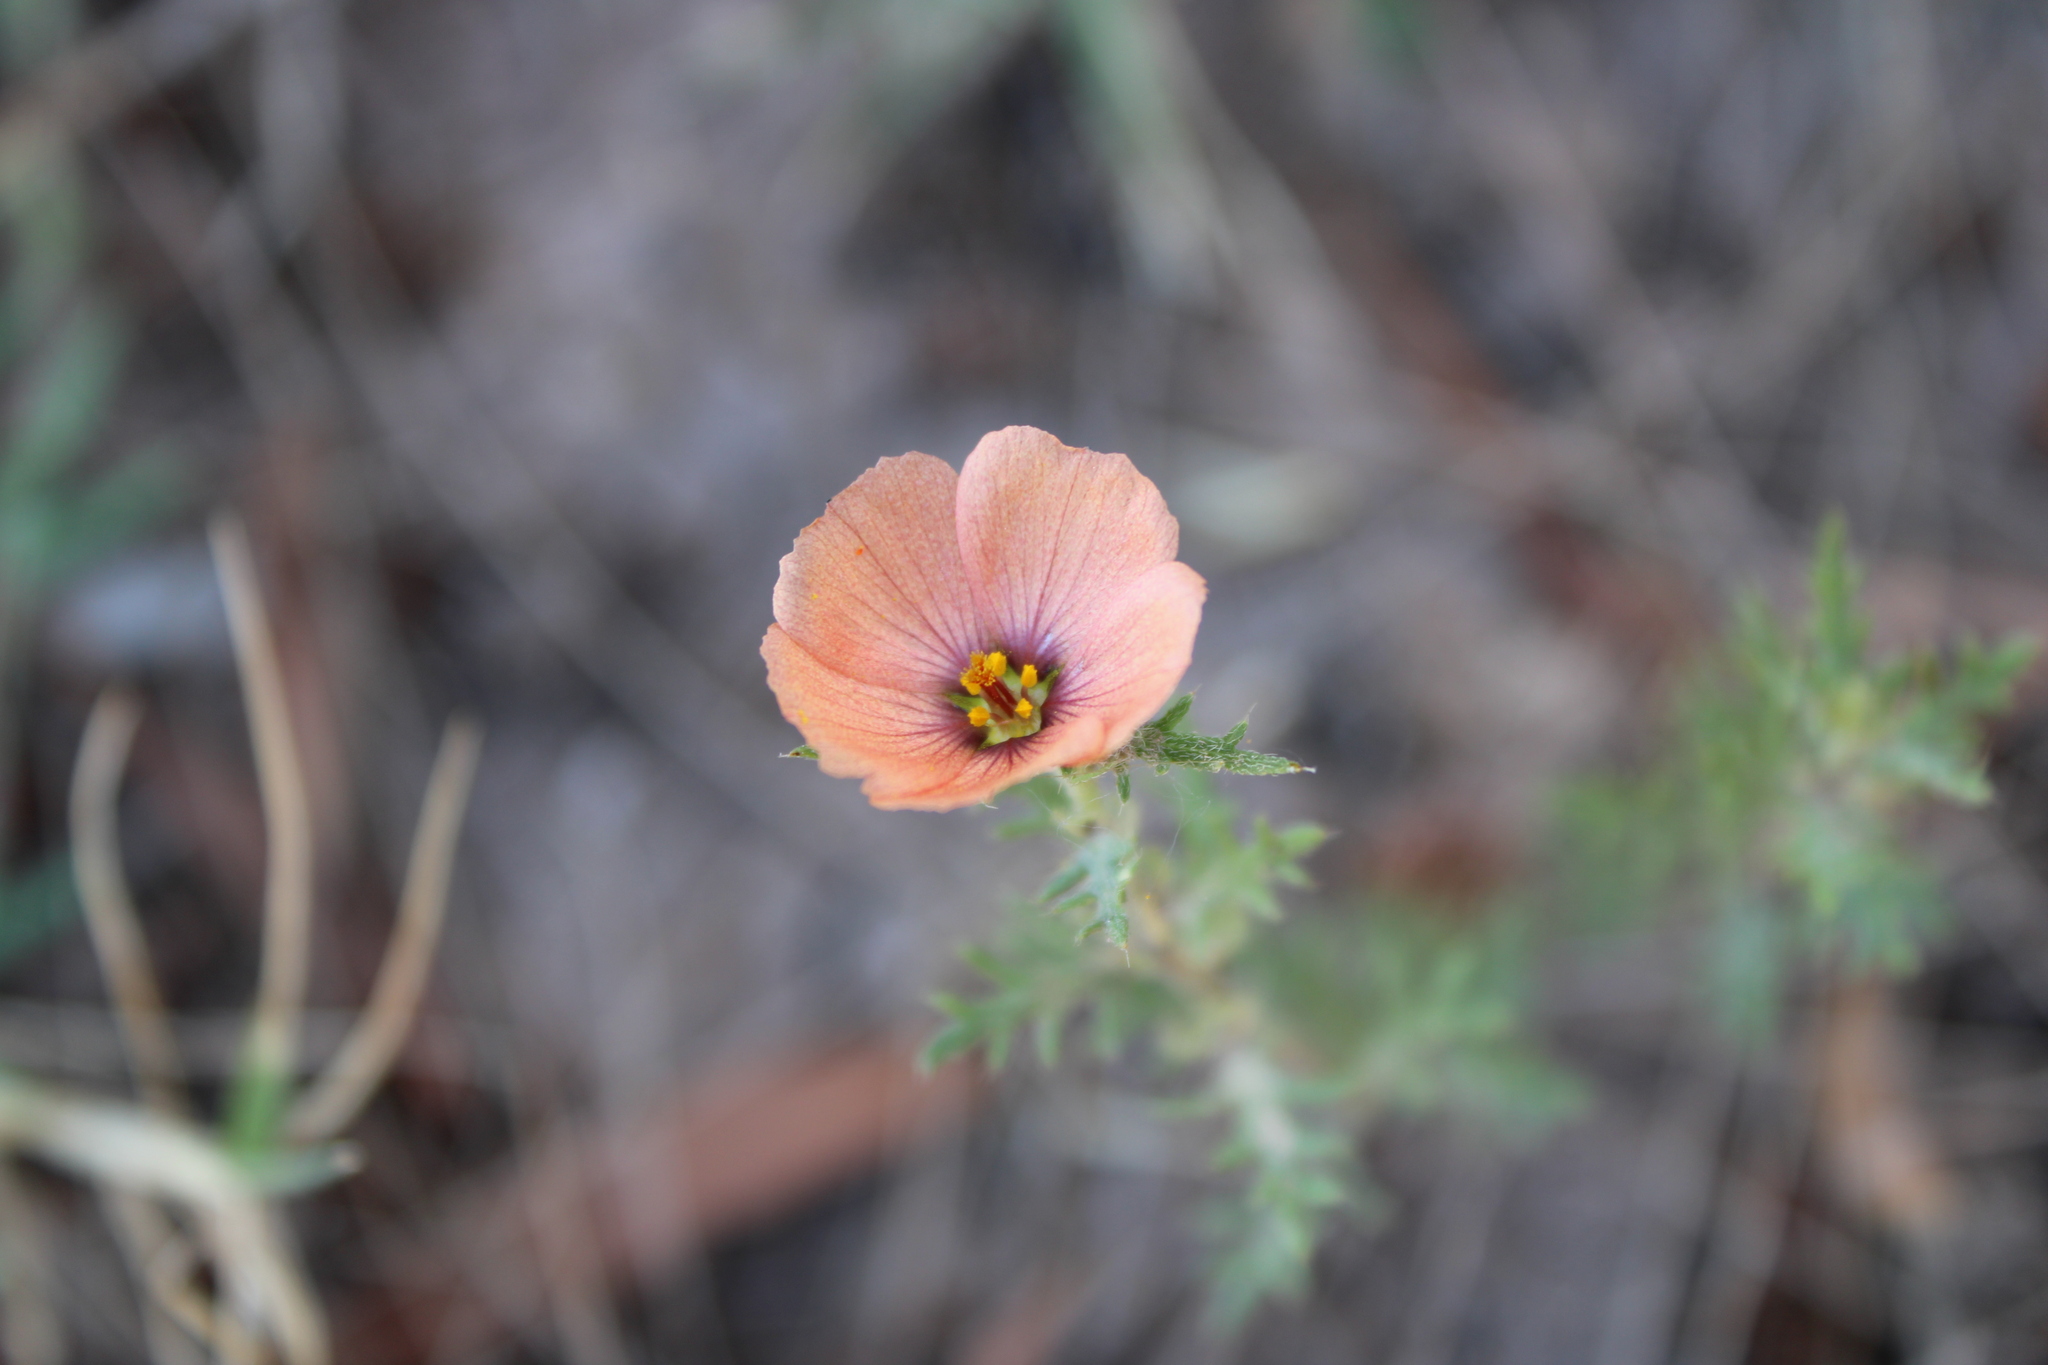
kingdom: Plantae
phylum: Tracheophyta
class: Magnoliopsida
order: Malpighiales
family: Turneraceae
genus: Turnera
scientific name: Turnera sidoides
